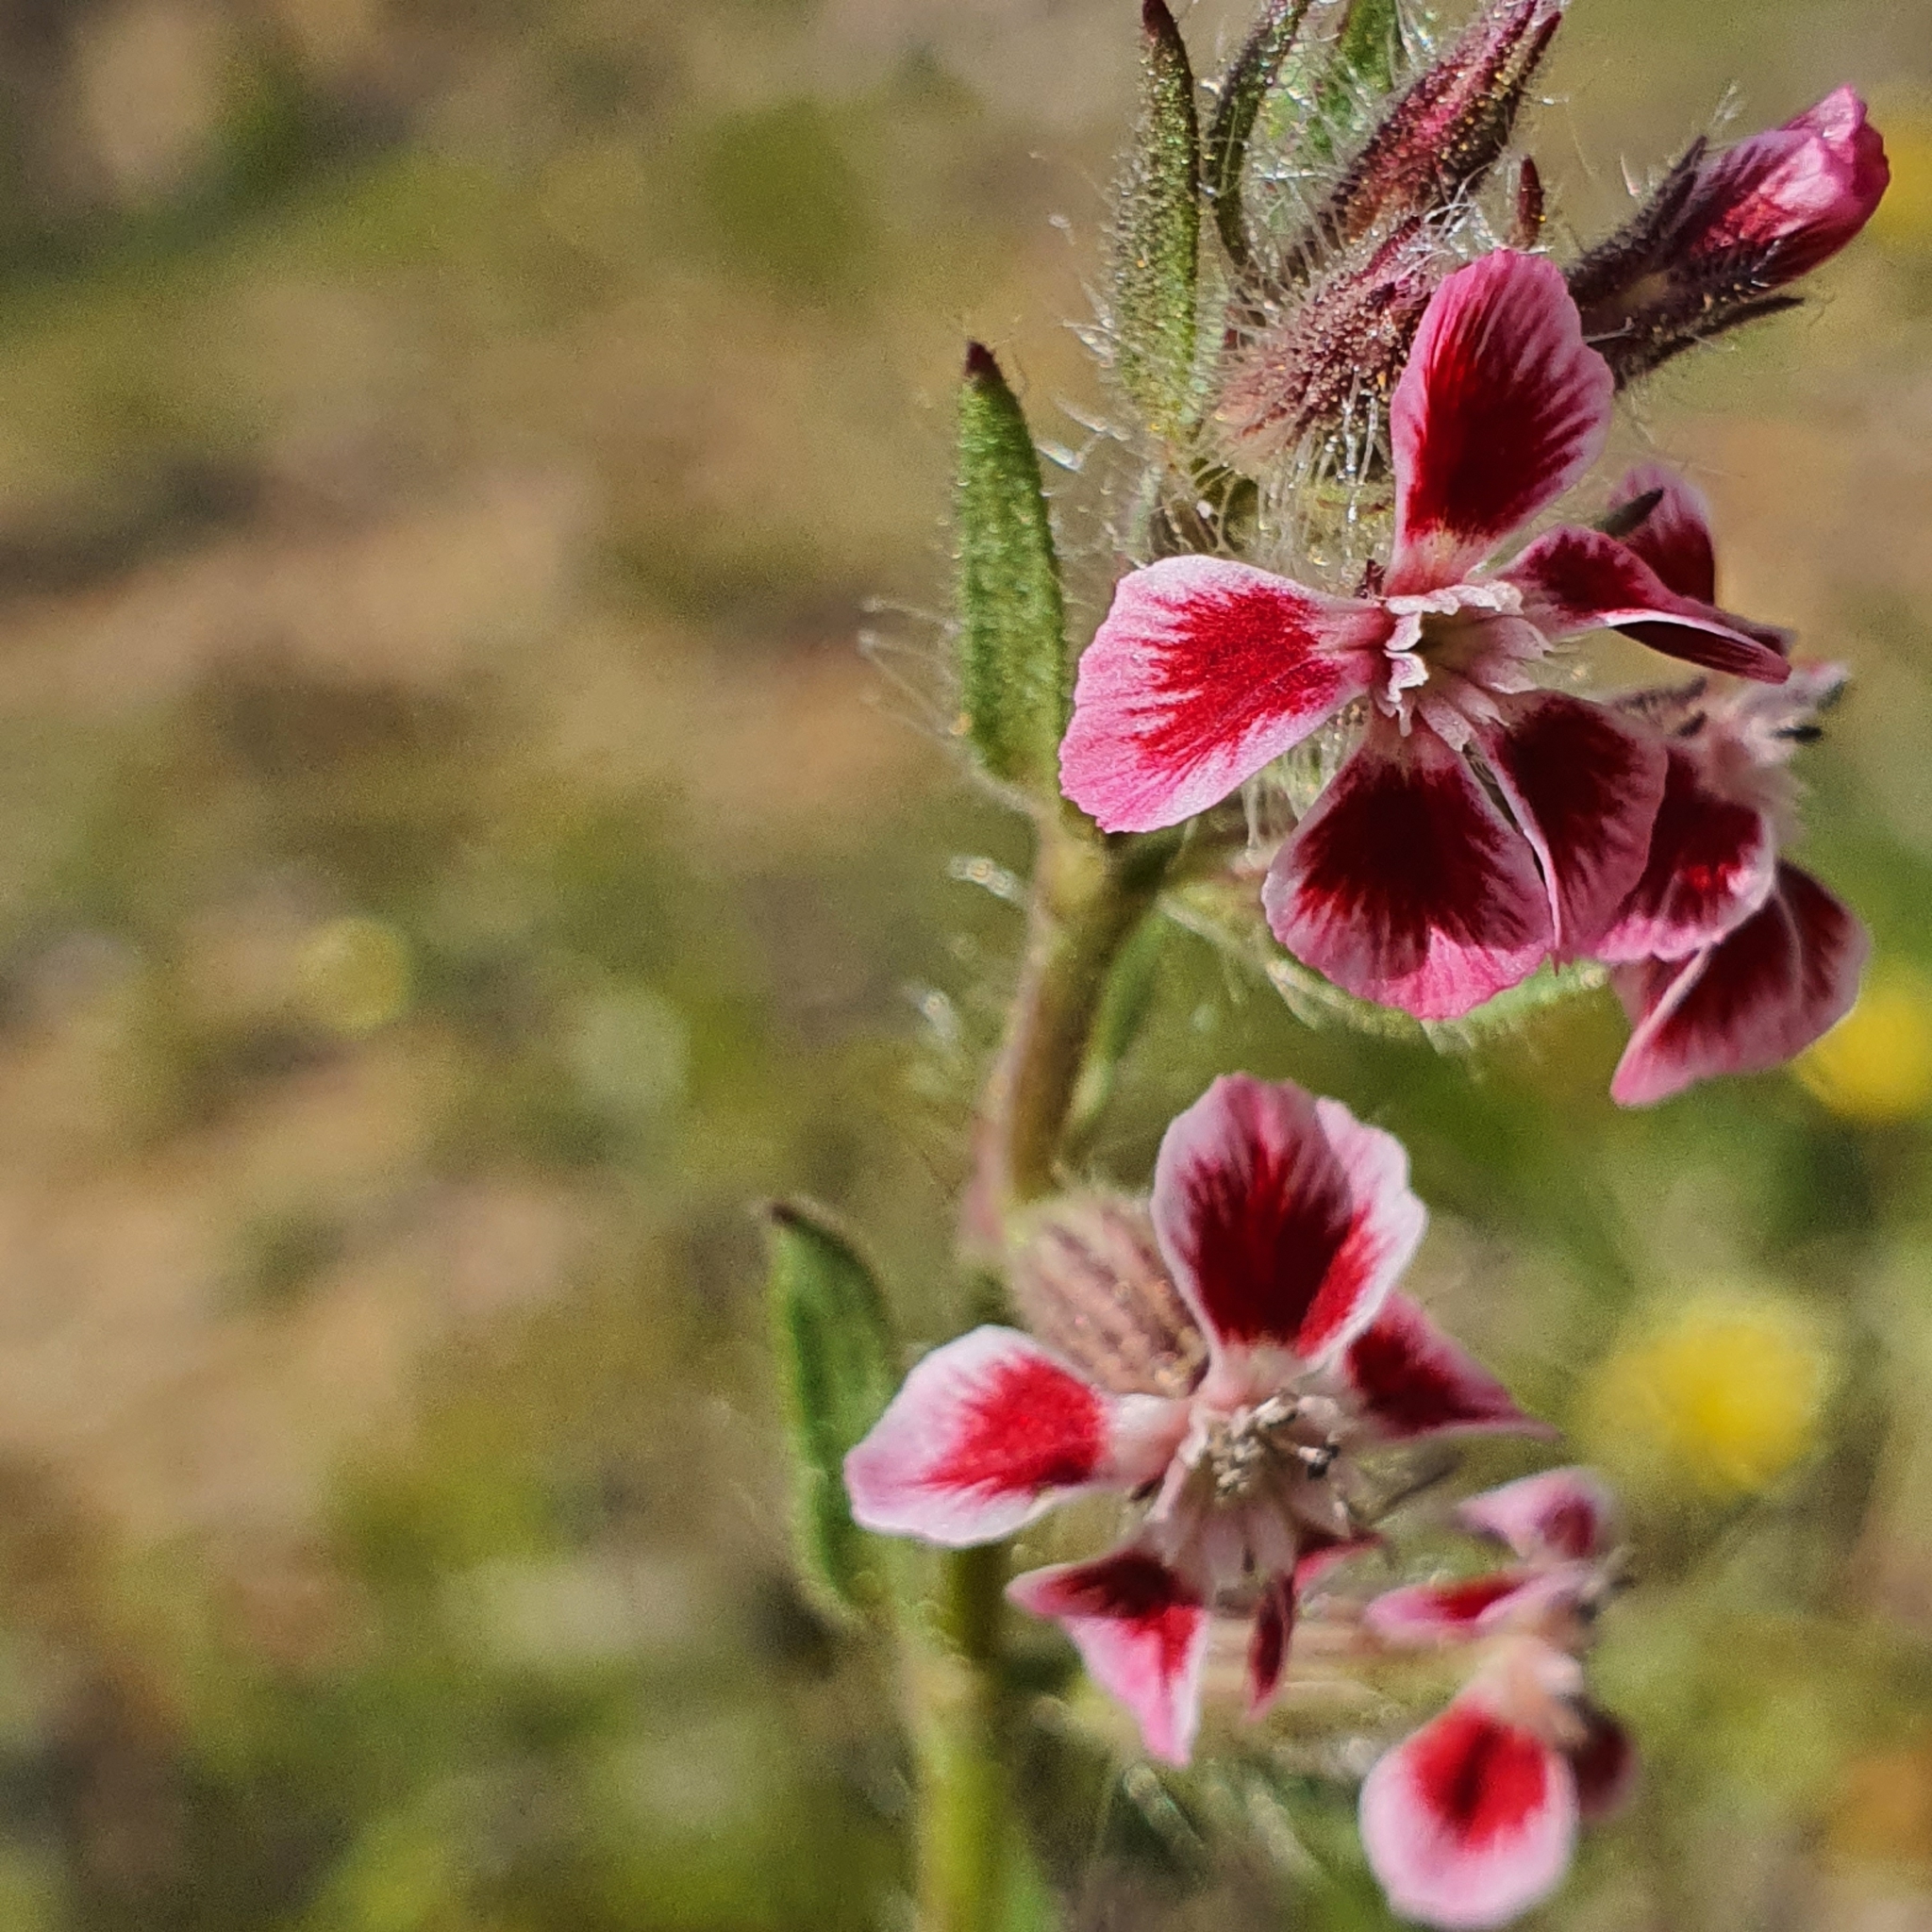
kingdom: Plantae
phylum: Tracheophyta
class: Magnoliopsida
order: Caryophyllales
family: Caryophyllaceae
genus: Silene
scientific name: Silene gallica
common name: Small-flowered catchfly
